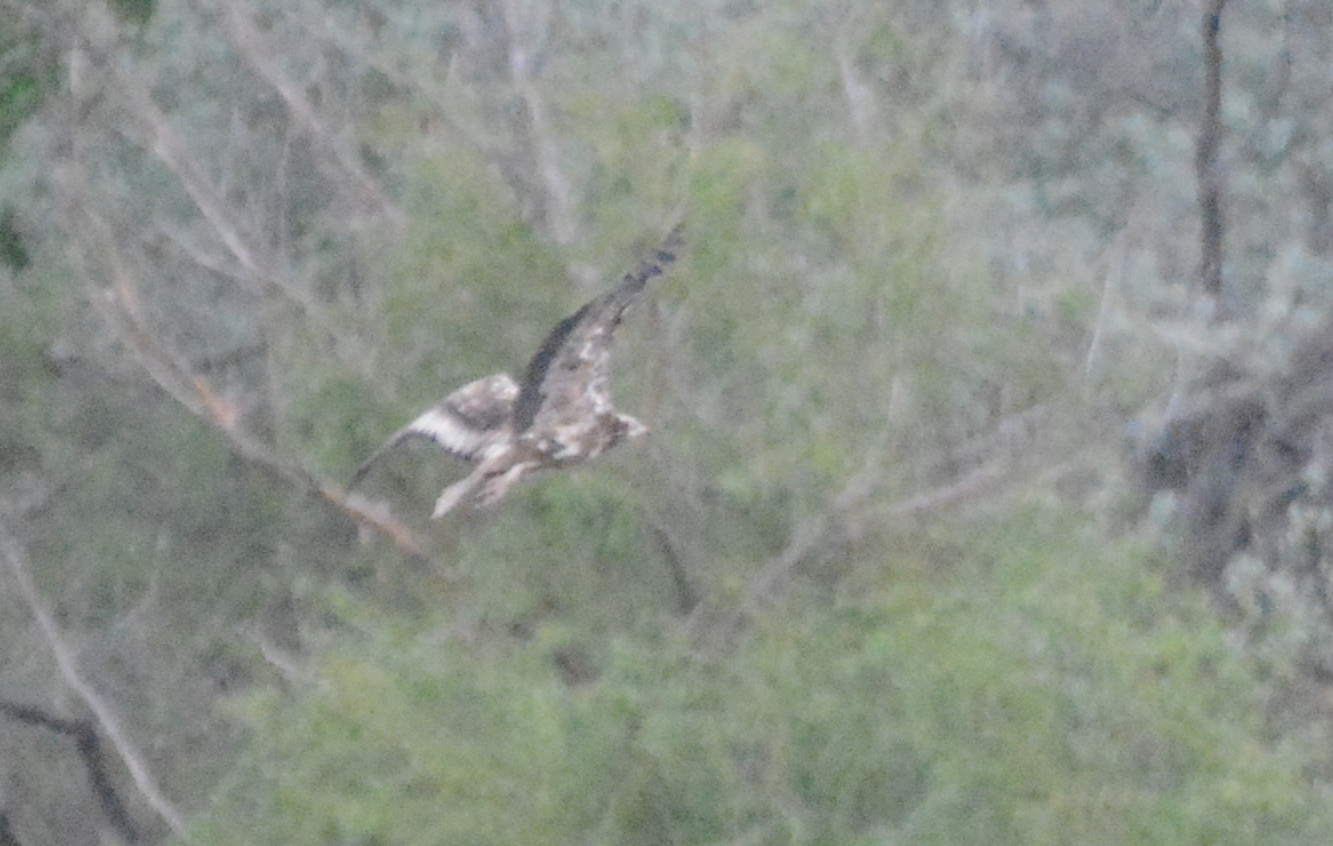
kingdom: Animalia
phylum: Chordata
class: Aves
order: Accipitriformes
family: Accipitridae
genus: Neophron
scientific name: Neophron percnopterus
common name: Egyptian vulture
